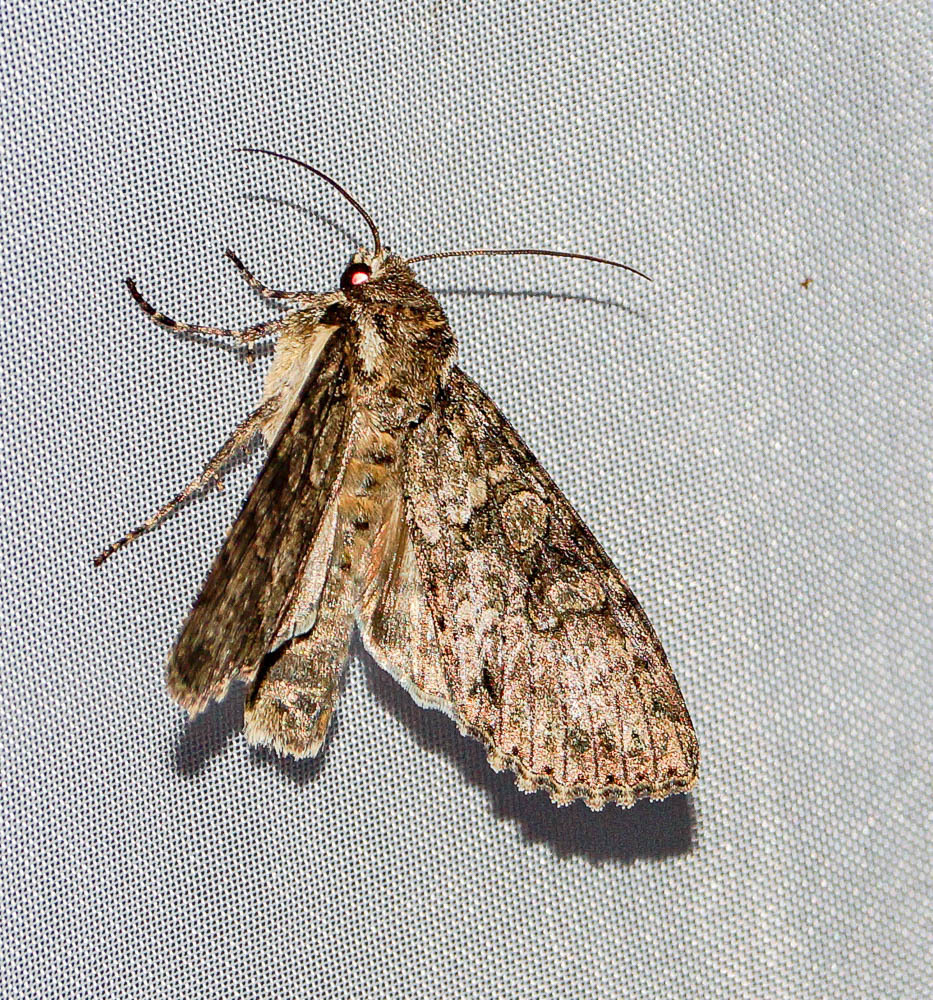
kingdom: Animalia
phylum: Arthropoda
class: Insecta
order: Lepidoptera
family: Noctuidae
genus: Polia
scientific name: Polia nebulosa
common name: Grey arches
